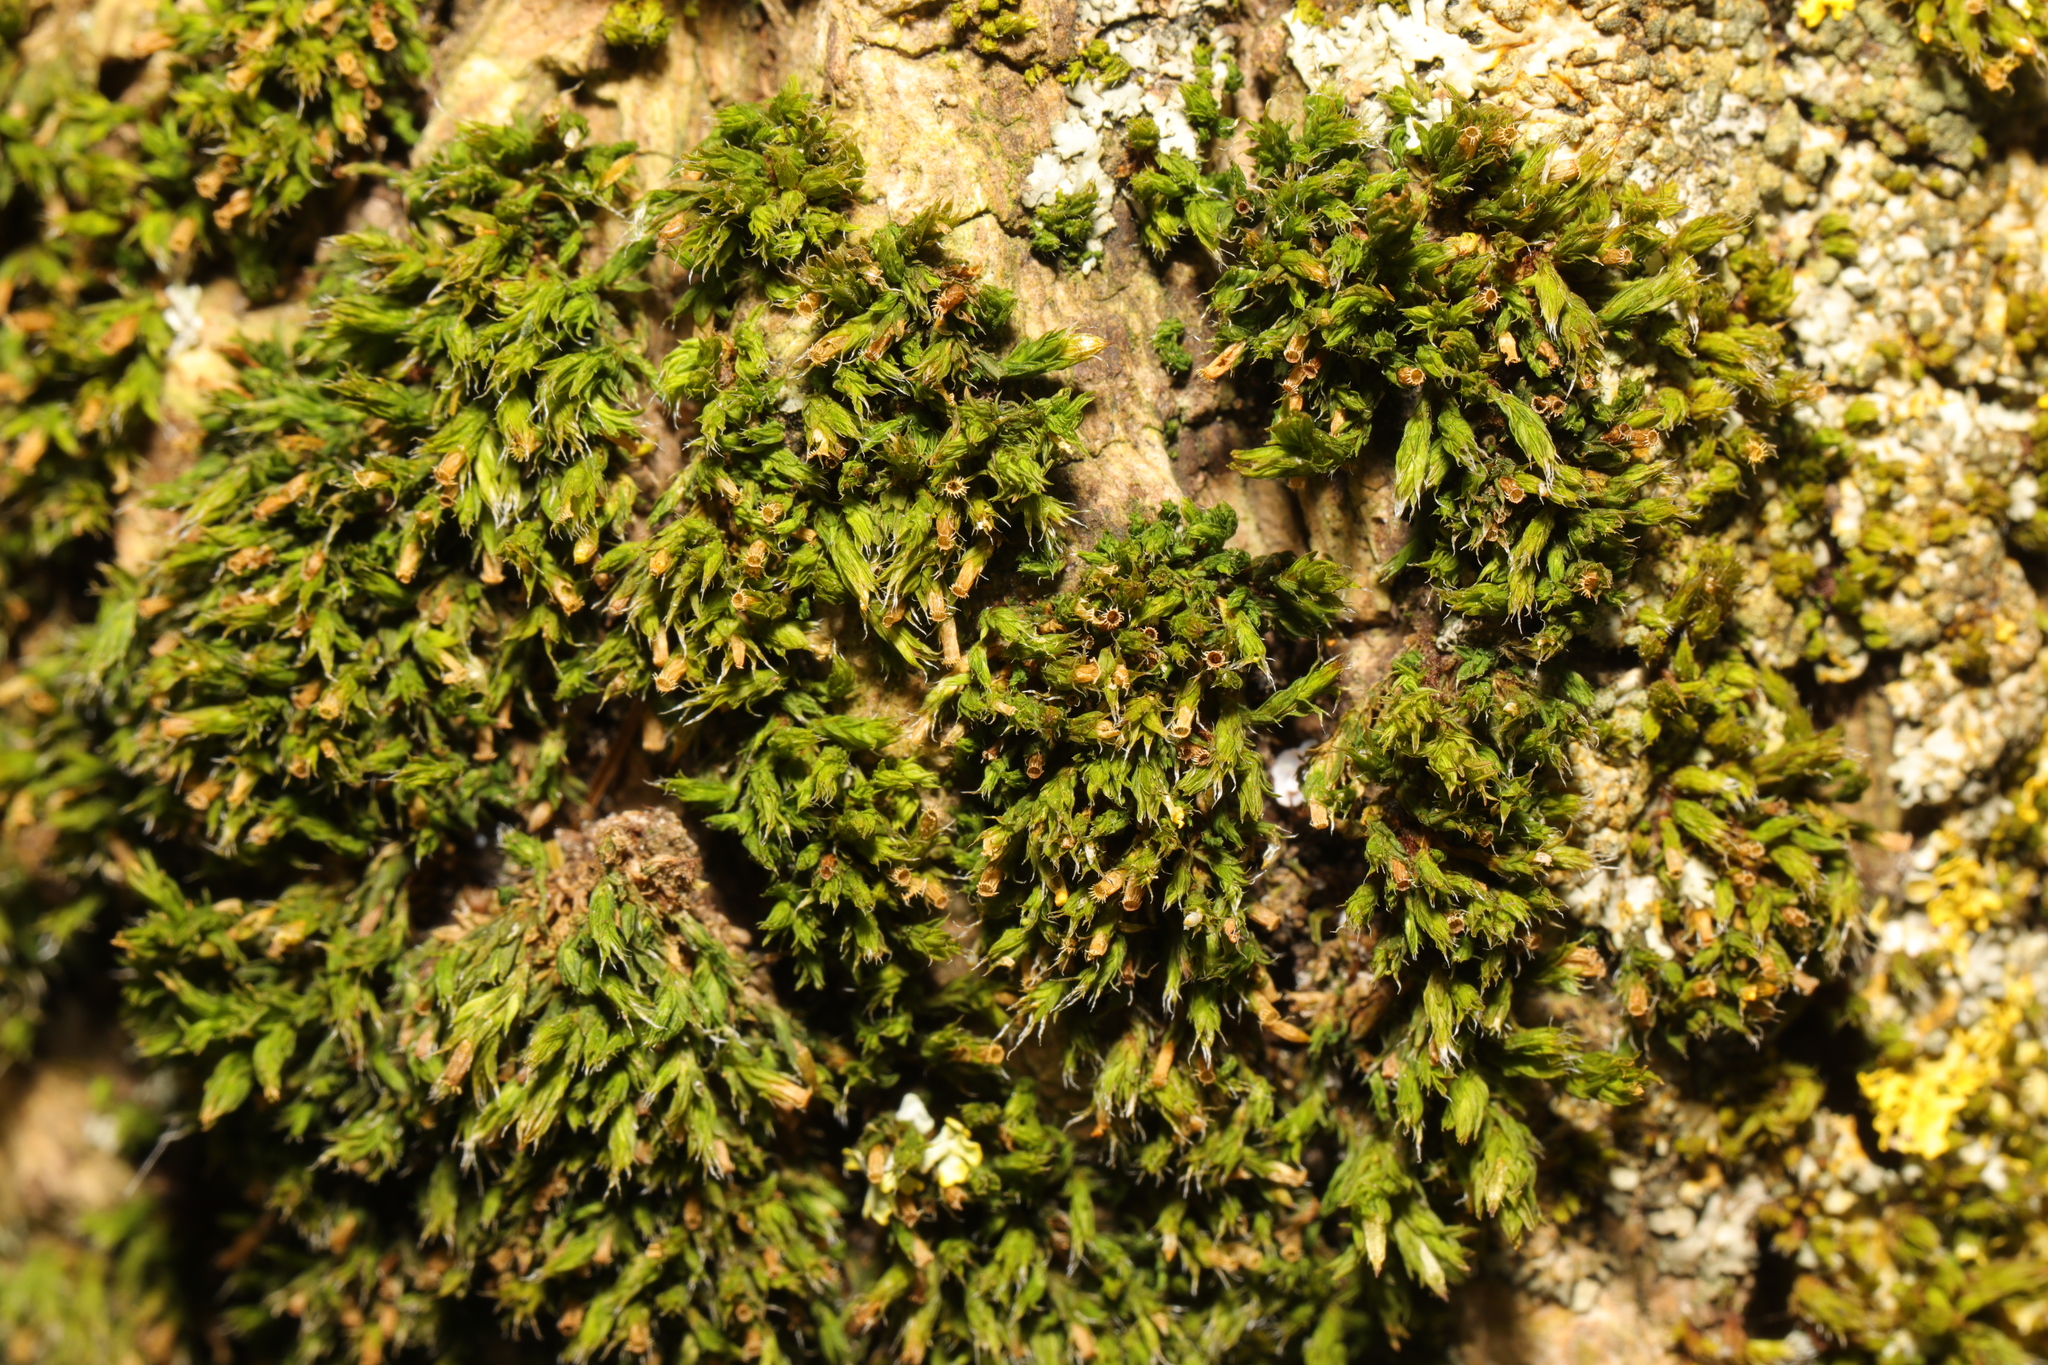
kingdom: Plantae
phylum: Bryophyta
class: Bryopsida
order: Orthotrichales
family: Orthotrichaceae
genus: Orthotrichum
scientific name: Orthotrichum diaphanum
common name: White-tipped bristle-moss
